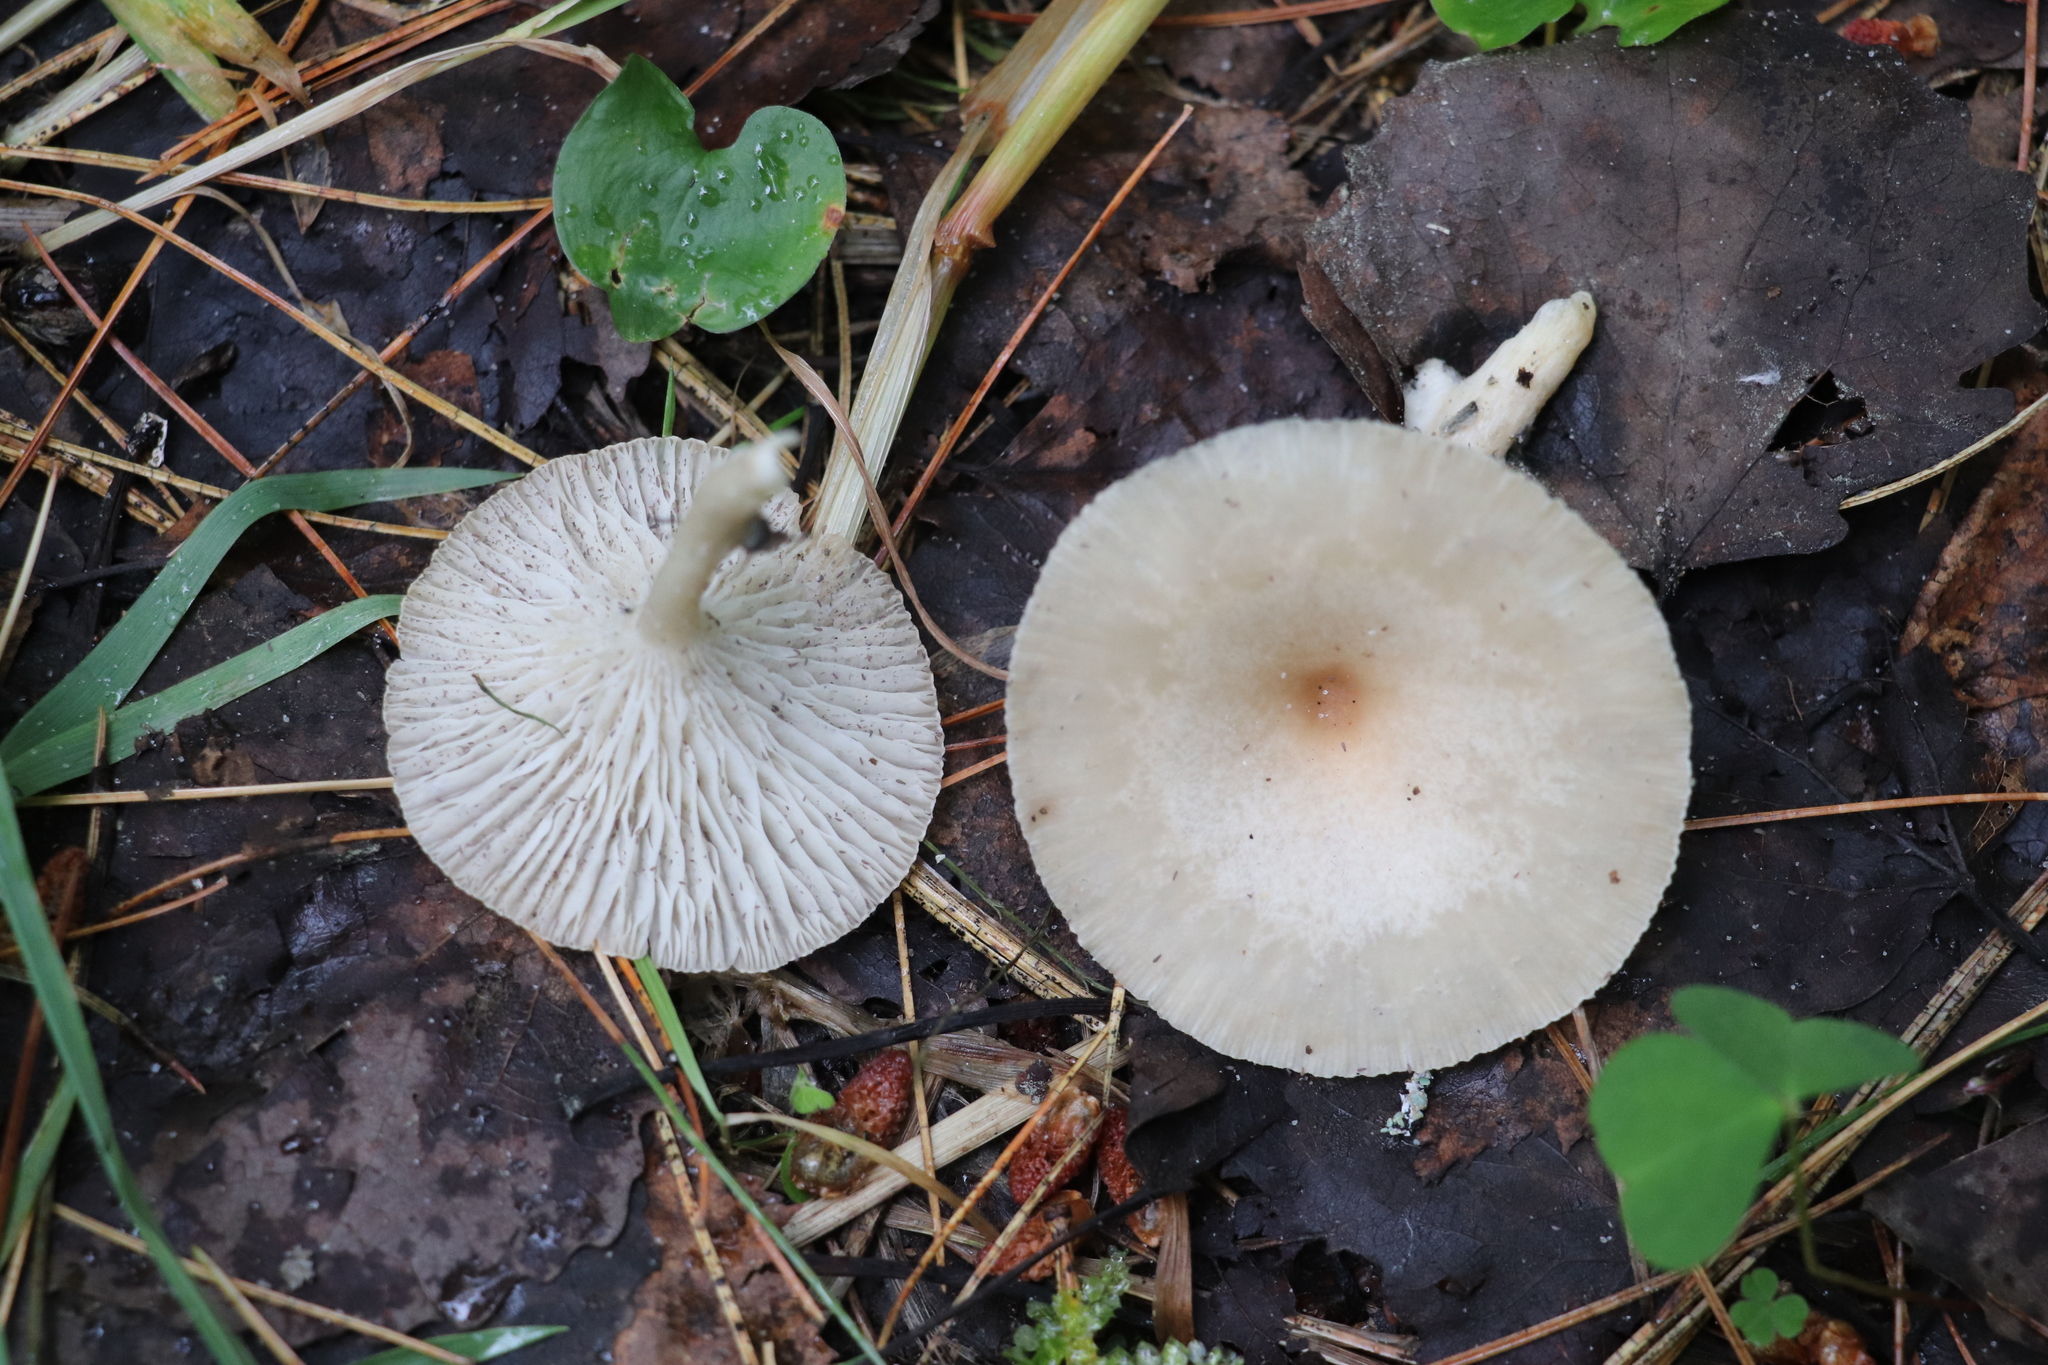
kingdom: Fungi
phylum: Basidiomycota
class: Agaricomycetes
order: Agaricales
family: Tricholomataceae
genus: Infundibulicybe
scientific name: Infundibulicybe gibba
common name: Common funnel
